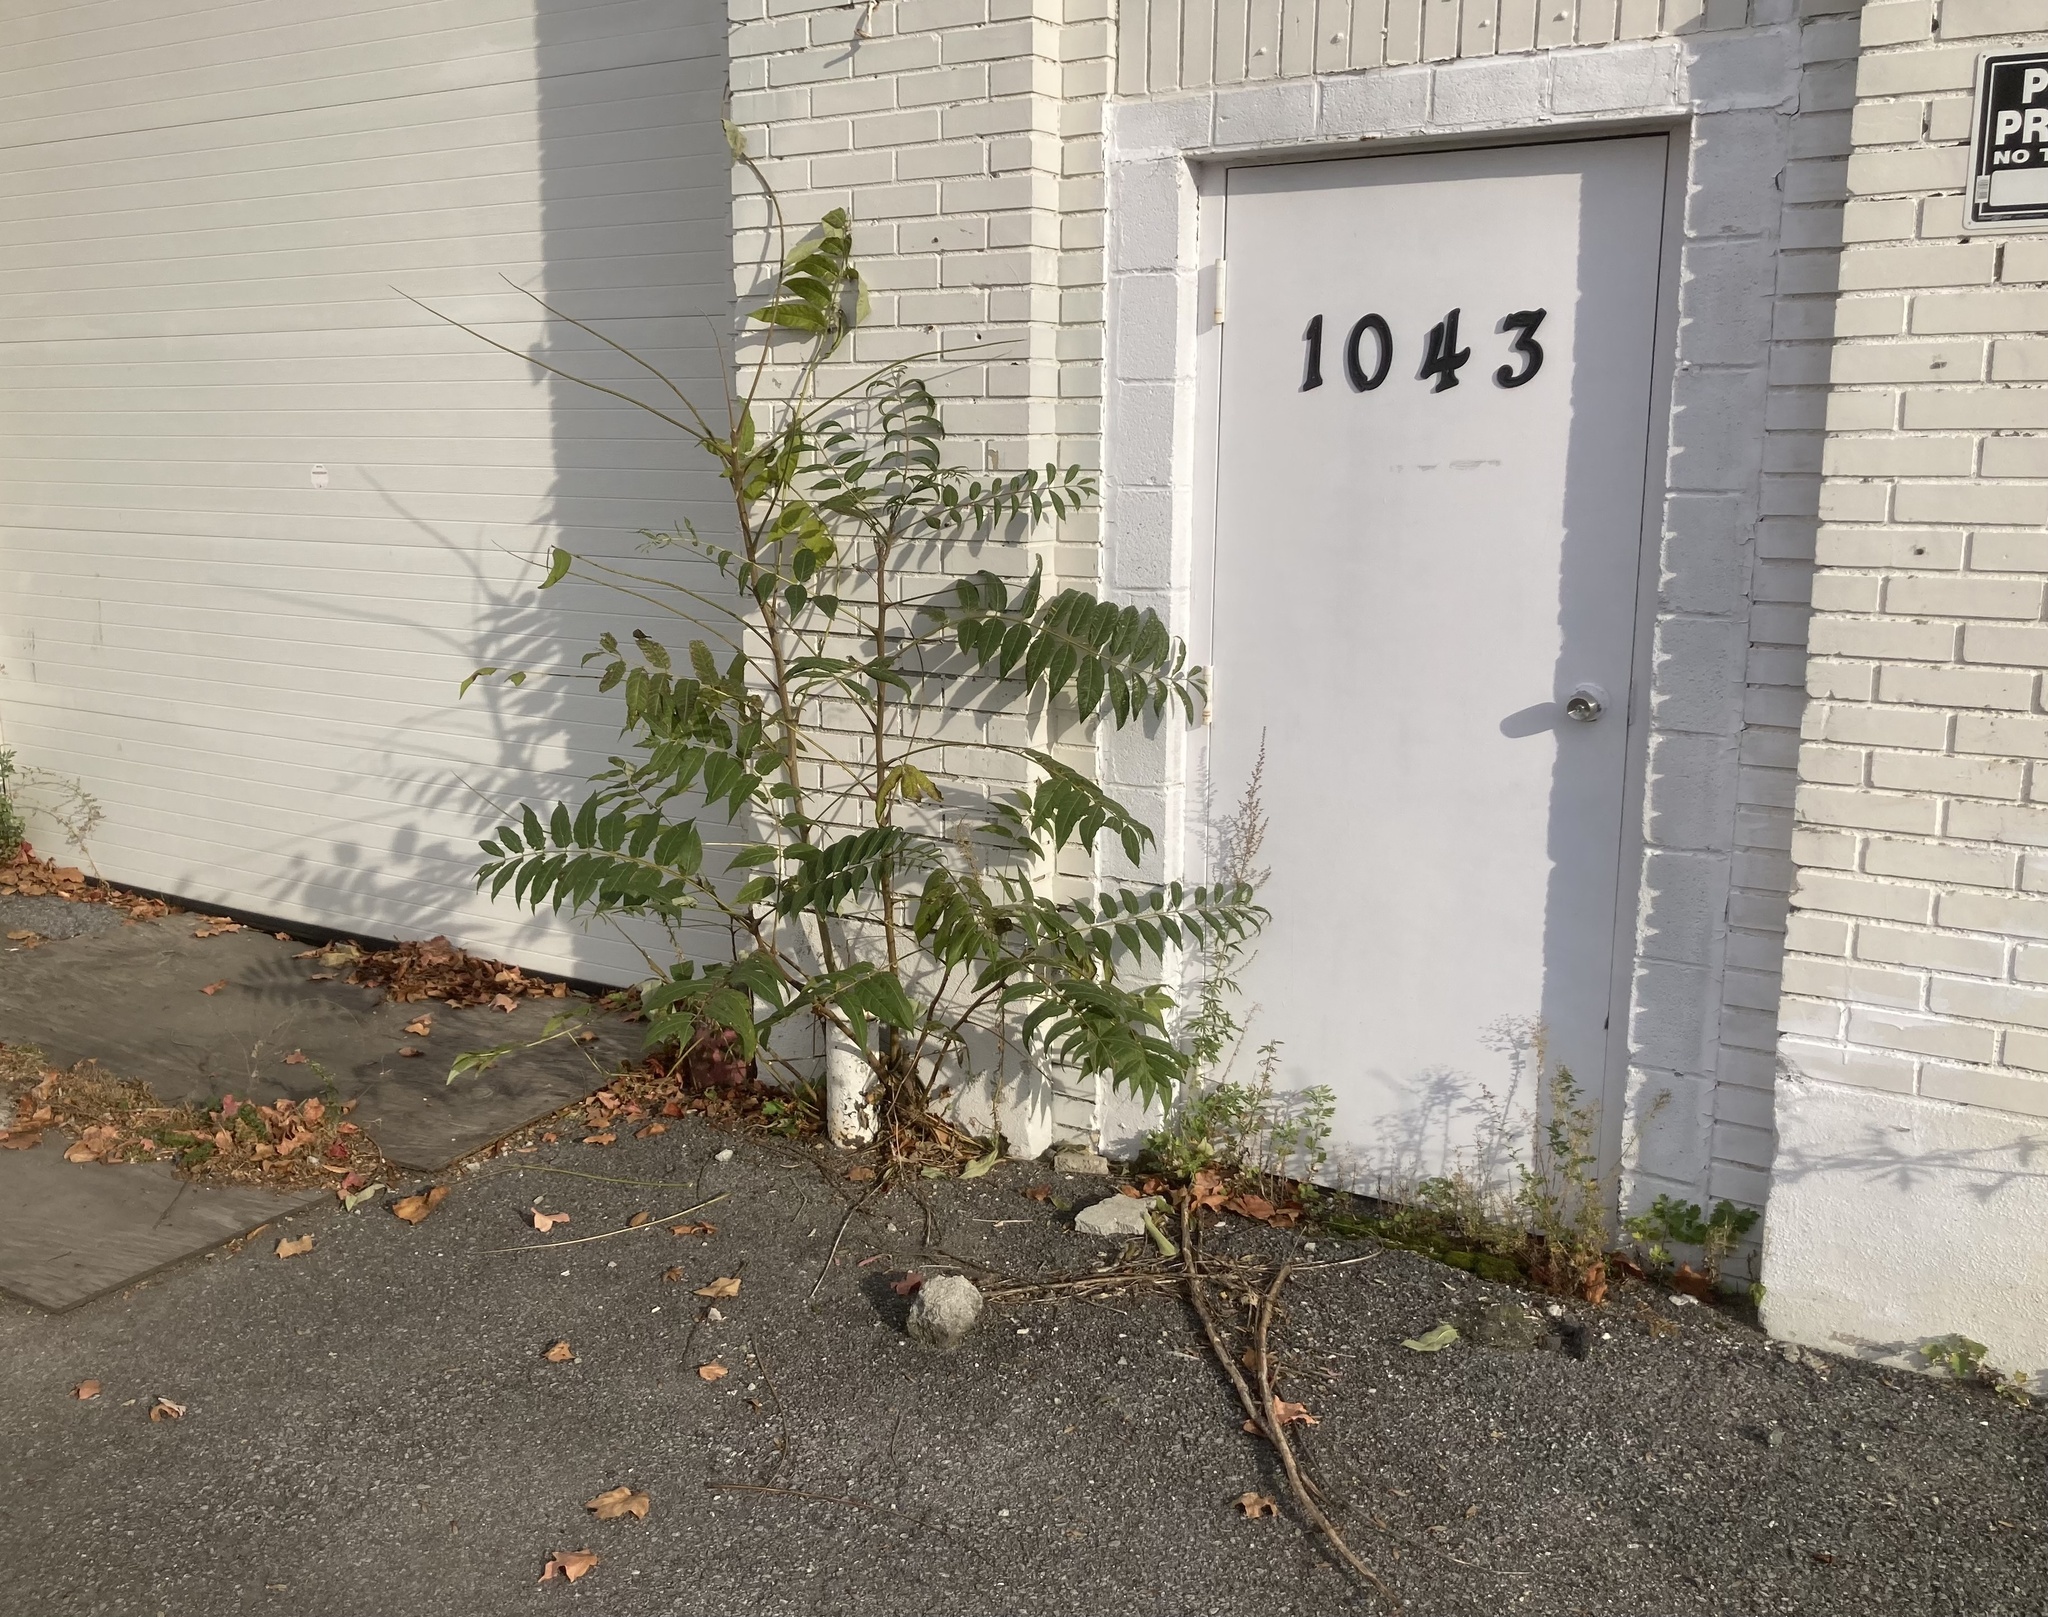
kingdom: Plantae
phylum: Tracheophyta
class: Magnoliopsida
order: Sapindales
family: Simaroubaceae
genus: Ailanthus
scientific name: Ailanthus altissima
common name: Tree-of-heaven
